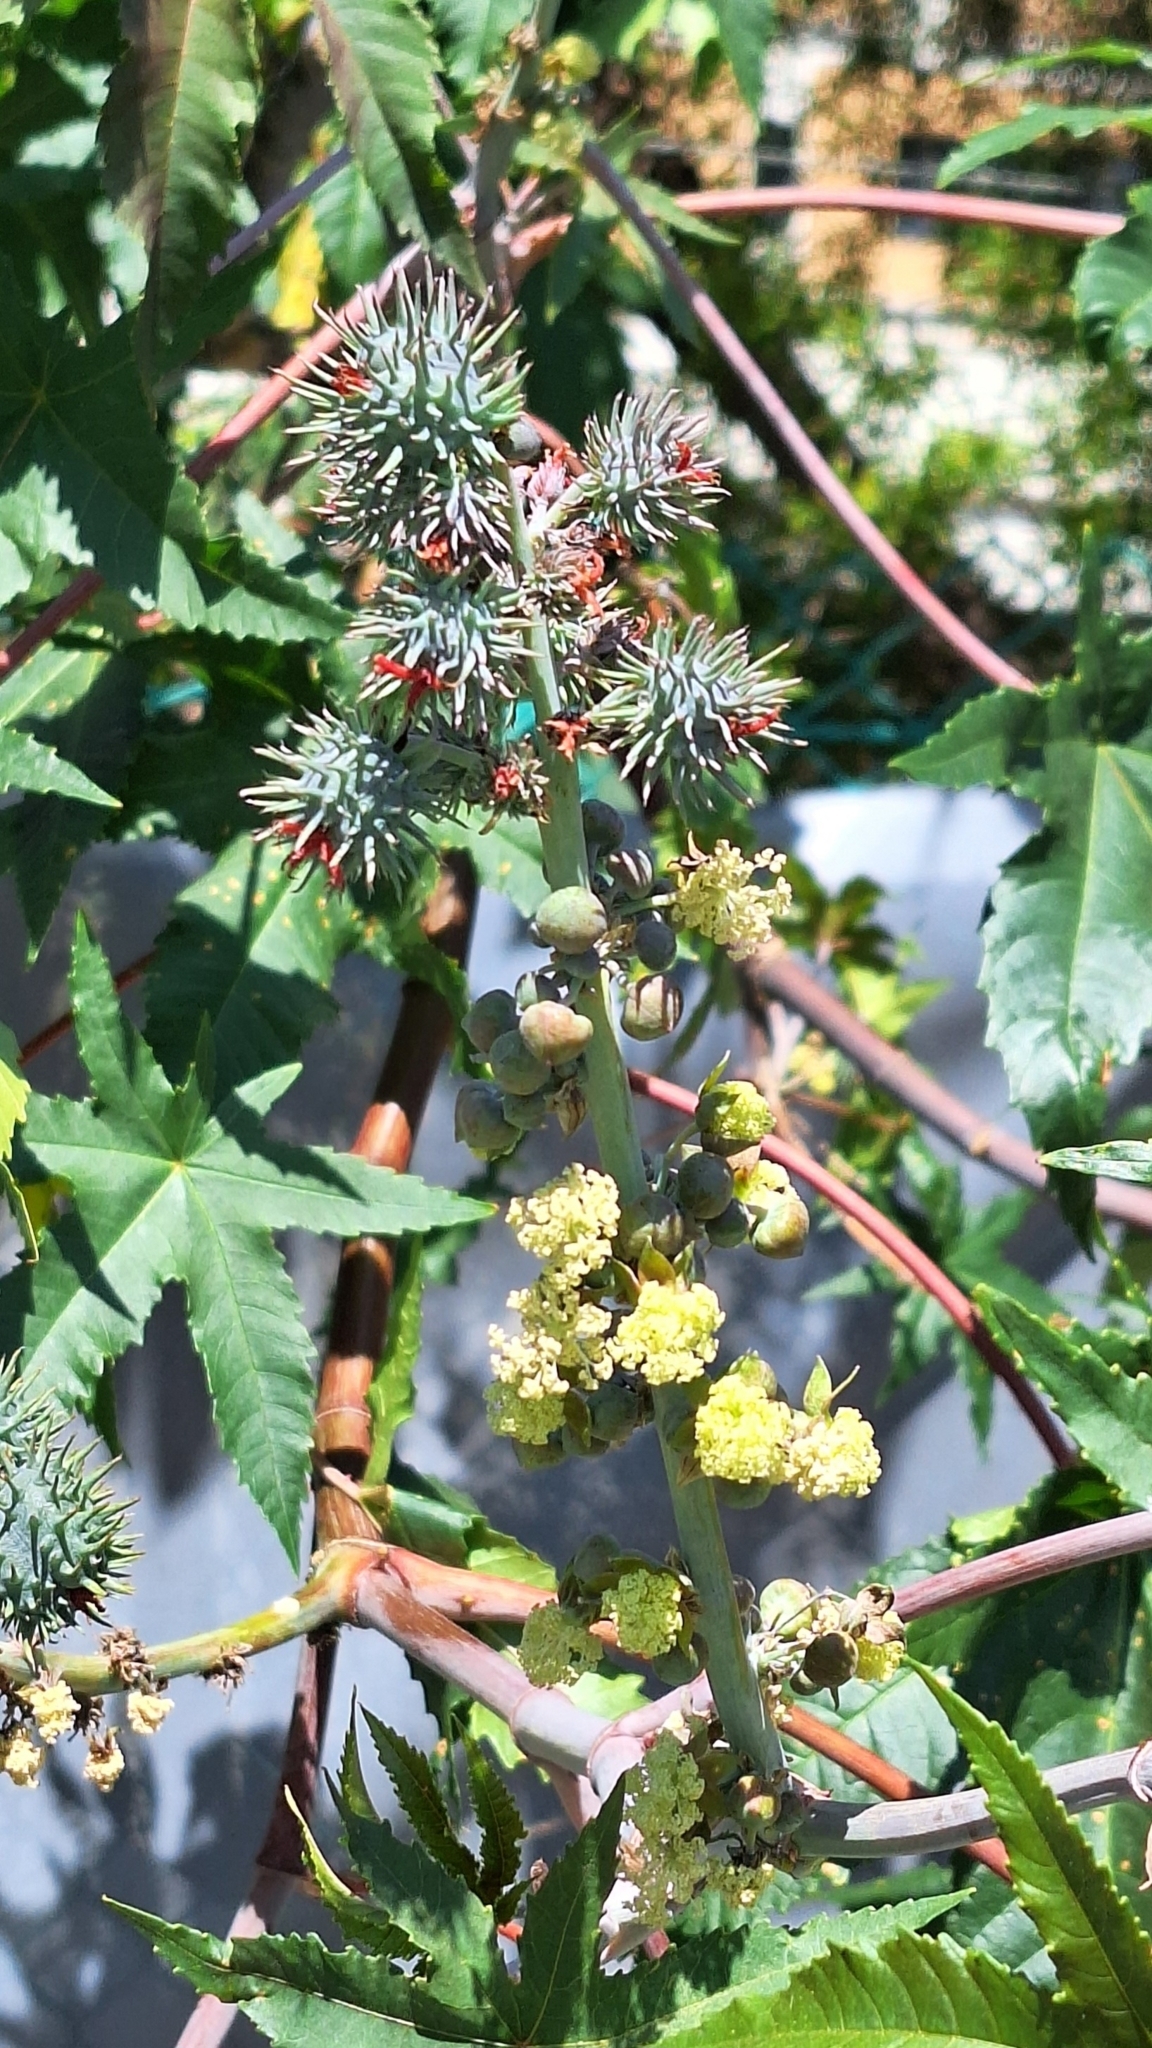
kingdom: Plantae
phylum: Tracheophyta
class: Magnoliopsida
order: Malpighiales
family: Euphorbiaceae
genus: Ricinus
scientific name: Ricinus communis
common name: Castor-oil-plant
